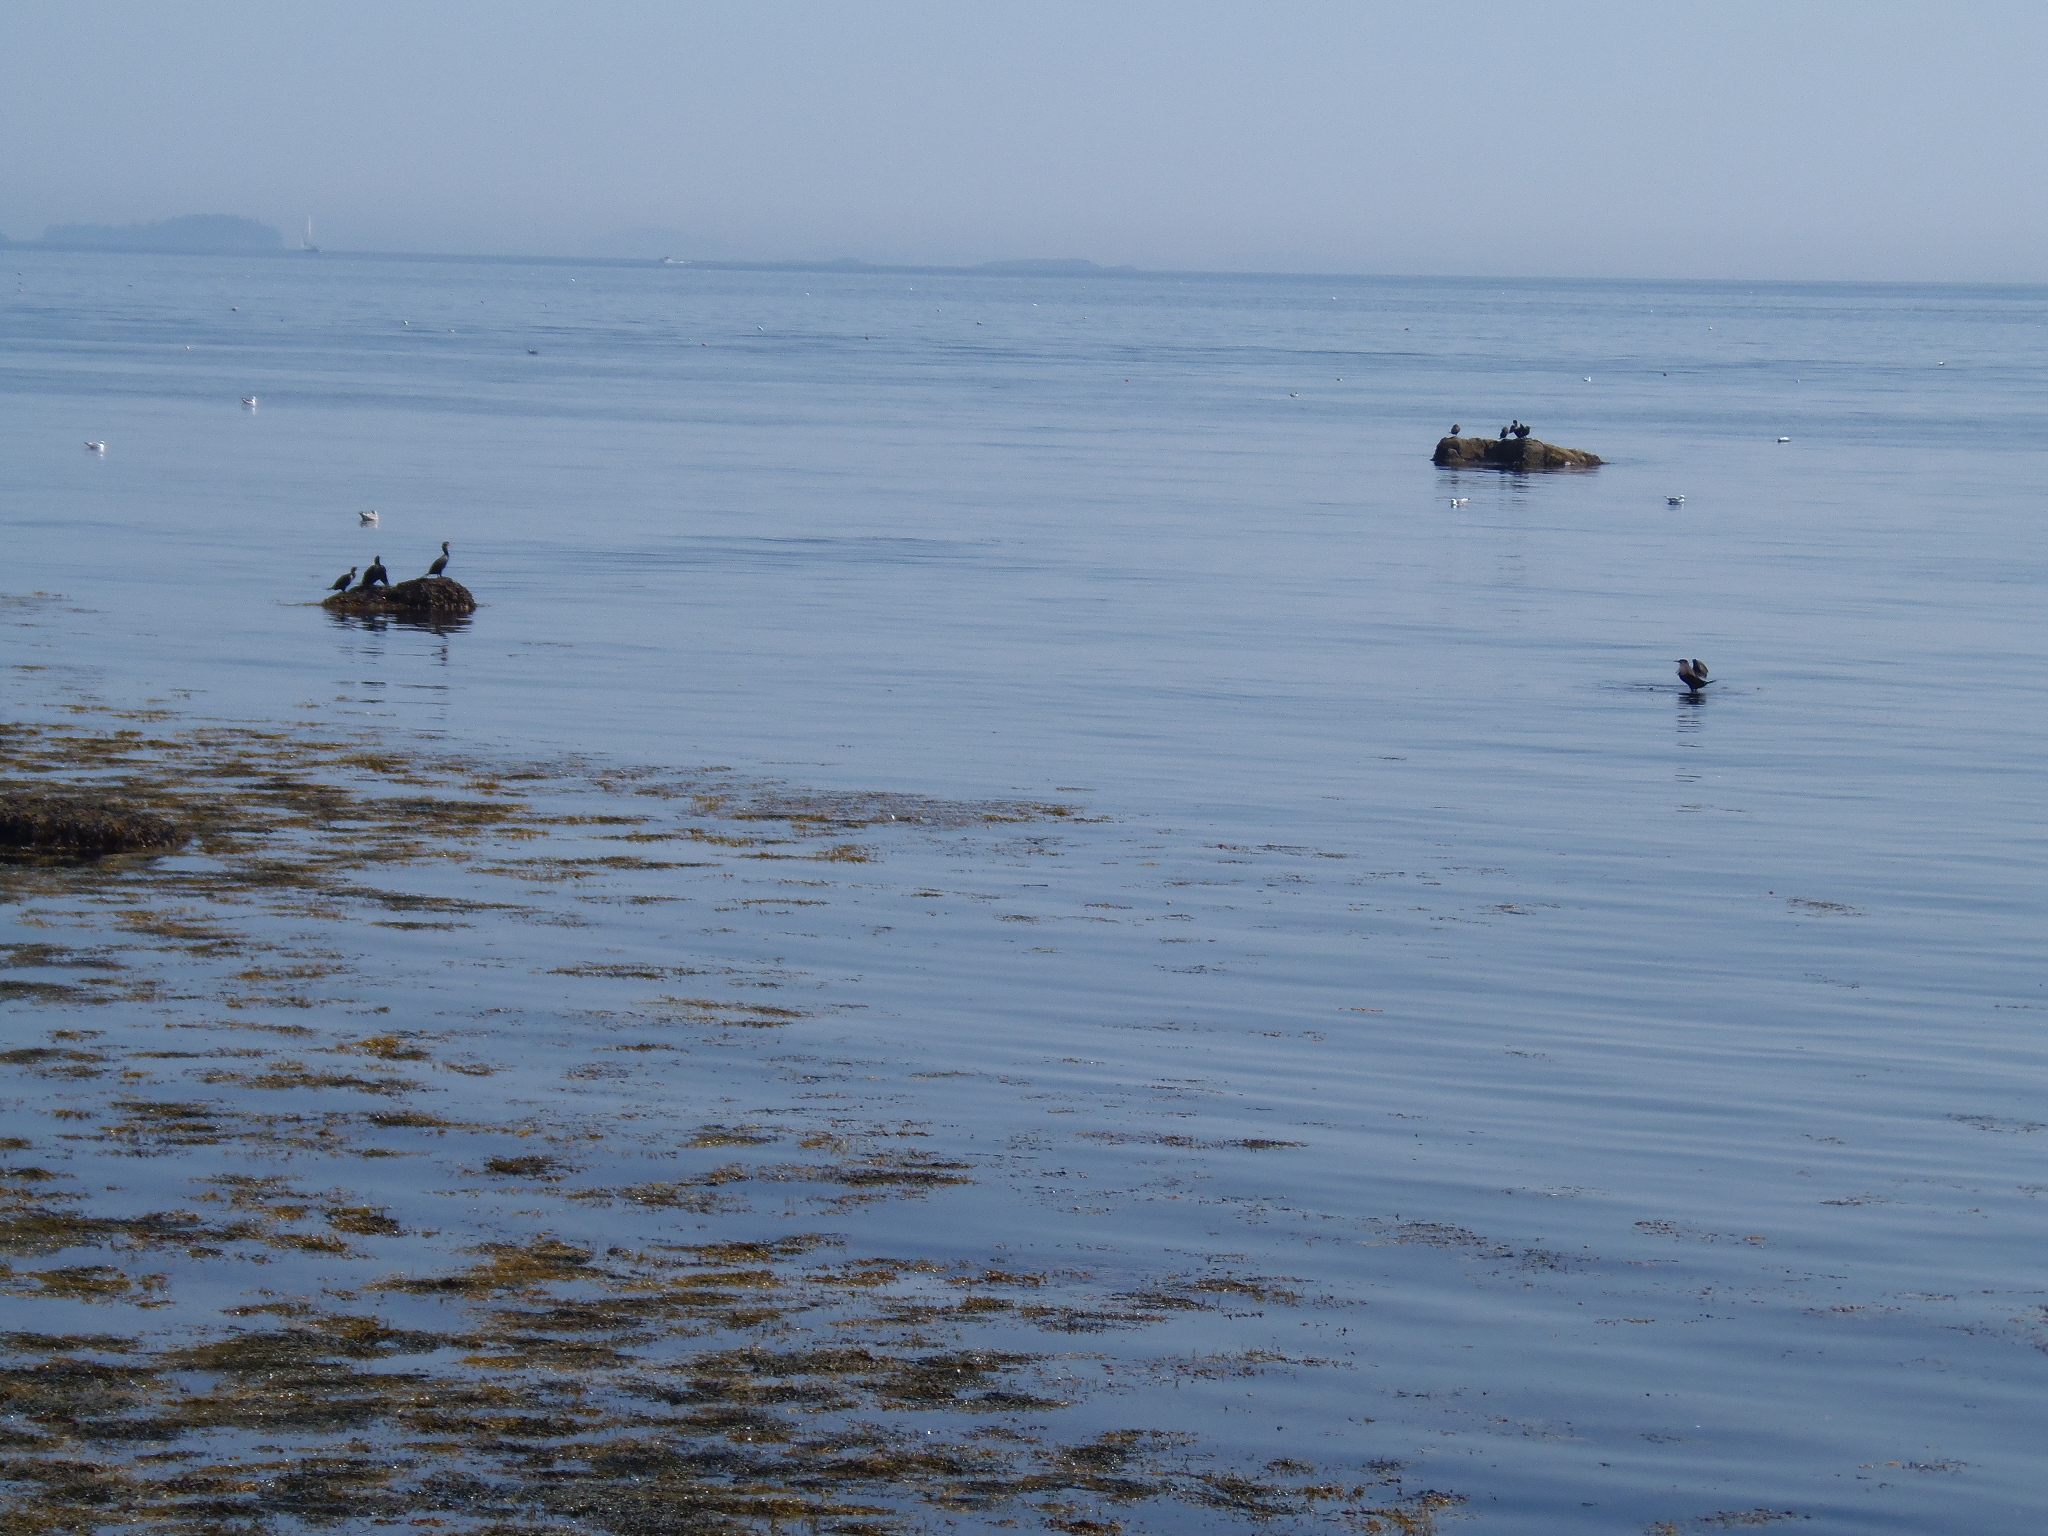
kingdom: Animalia
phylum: Chordata
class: Aves
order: Suliformes
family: Phalacrocoracidae
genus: Phalacrocorax
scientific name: Phalacrocorax auritus
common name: Double-crested cormorant
